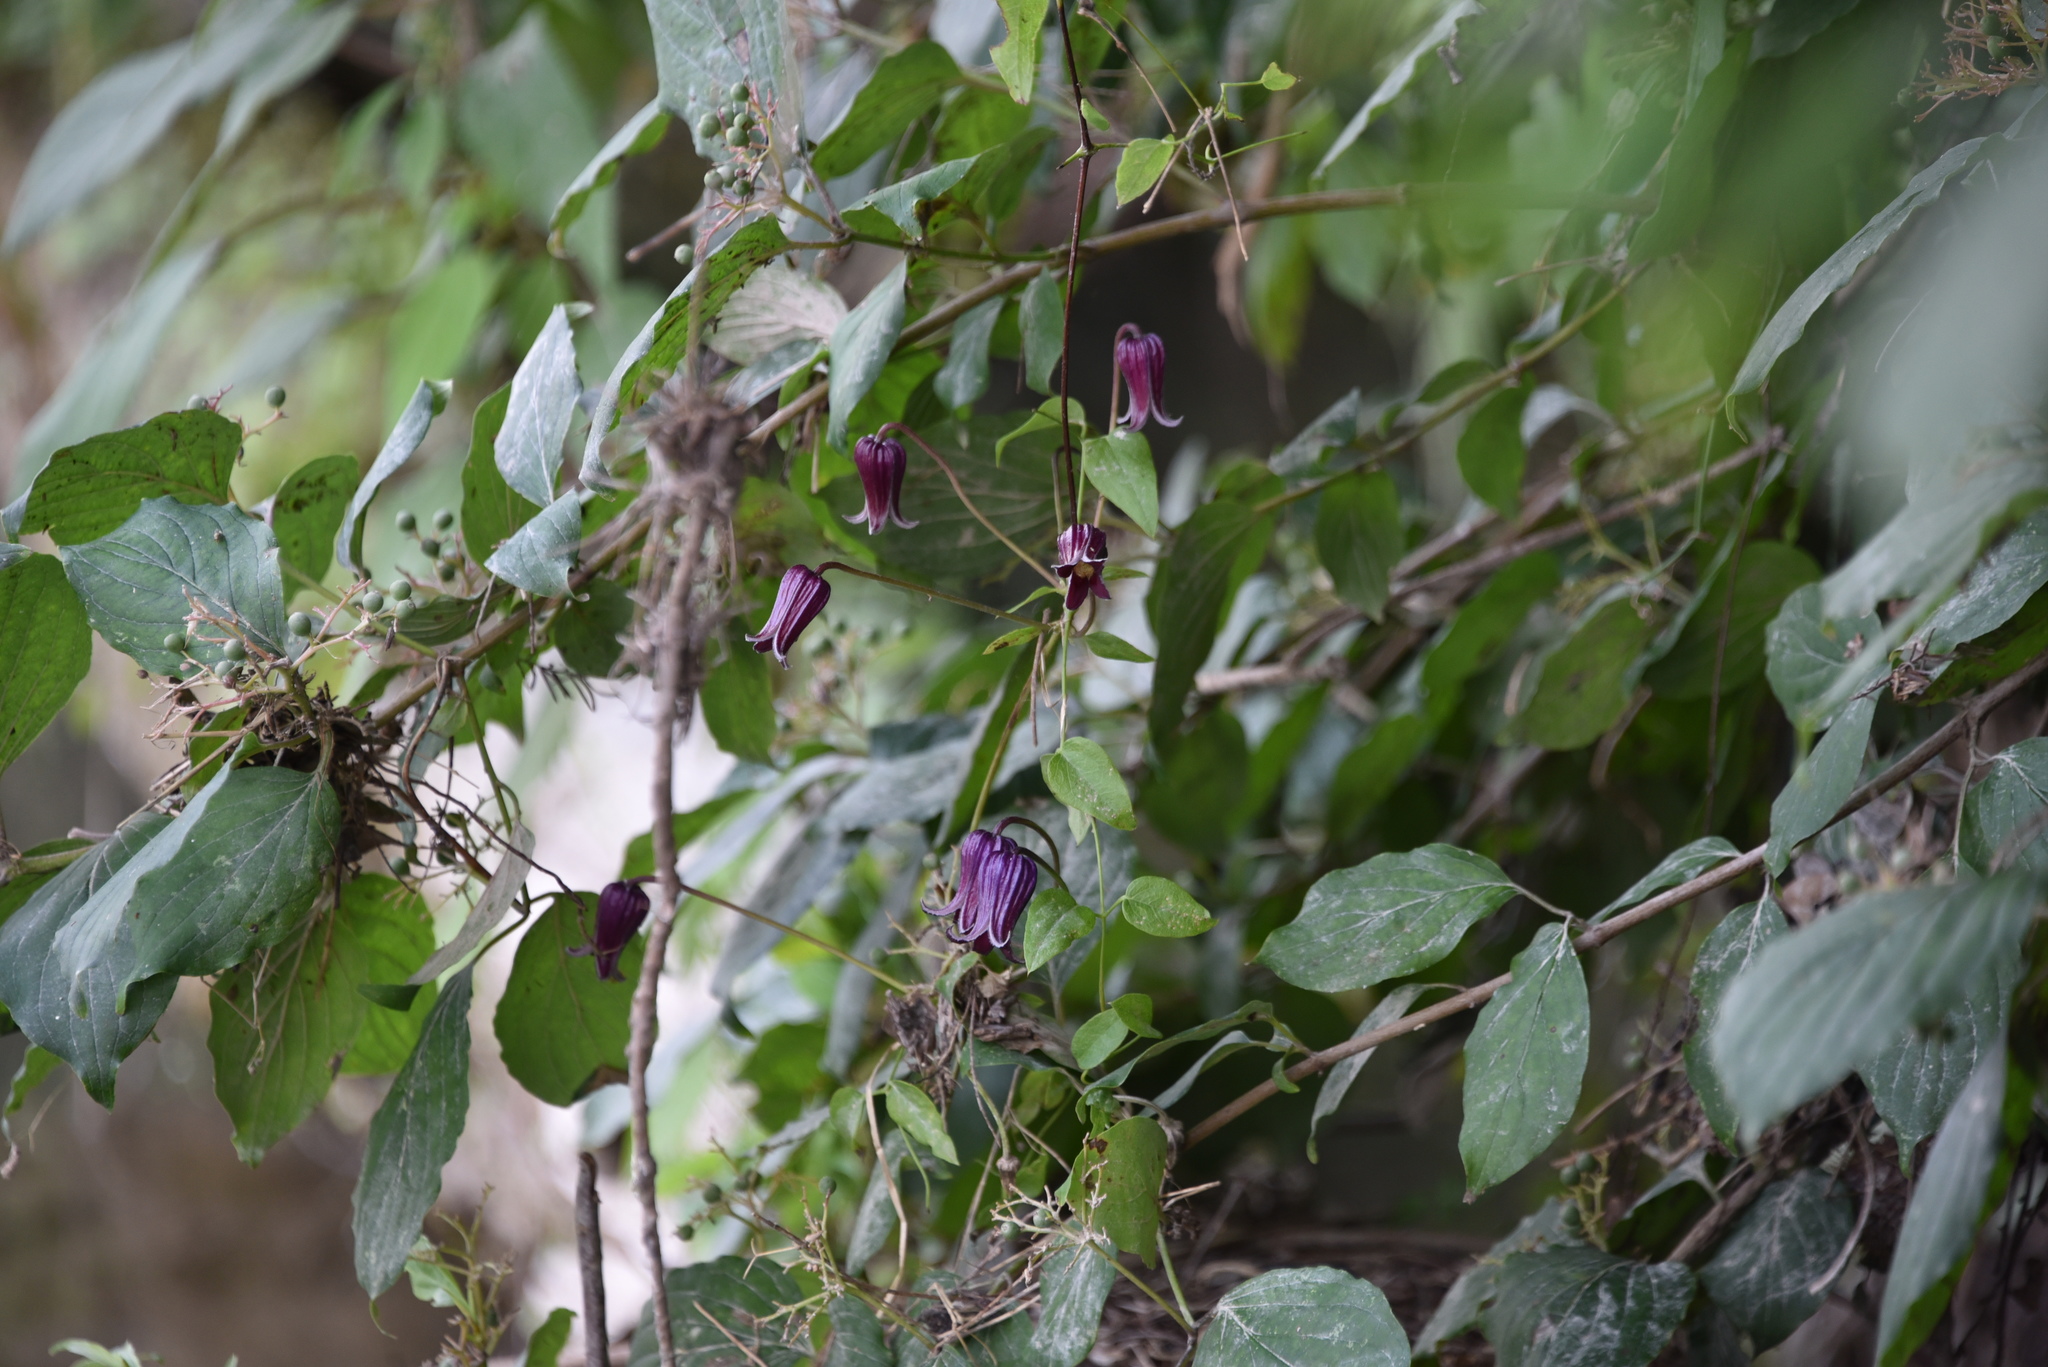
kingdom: Plantae
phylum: Tracheophyta
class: Magnoliopsida
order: Ranunculales
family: Ranunculaceae
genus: Clematis
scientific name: Clematis pitcheri
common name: Bellflower clematis
